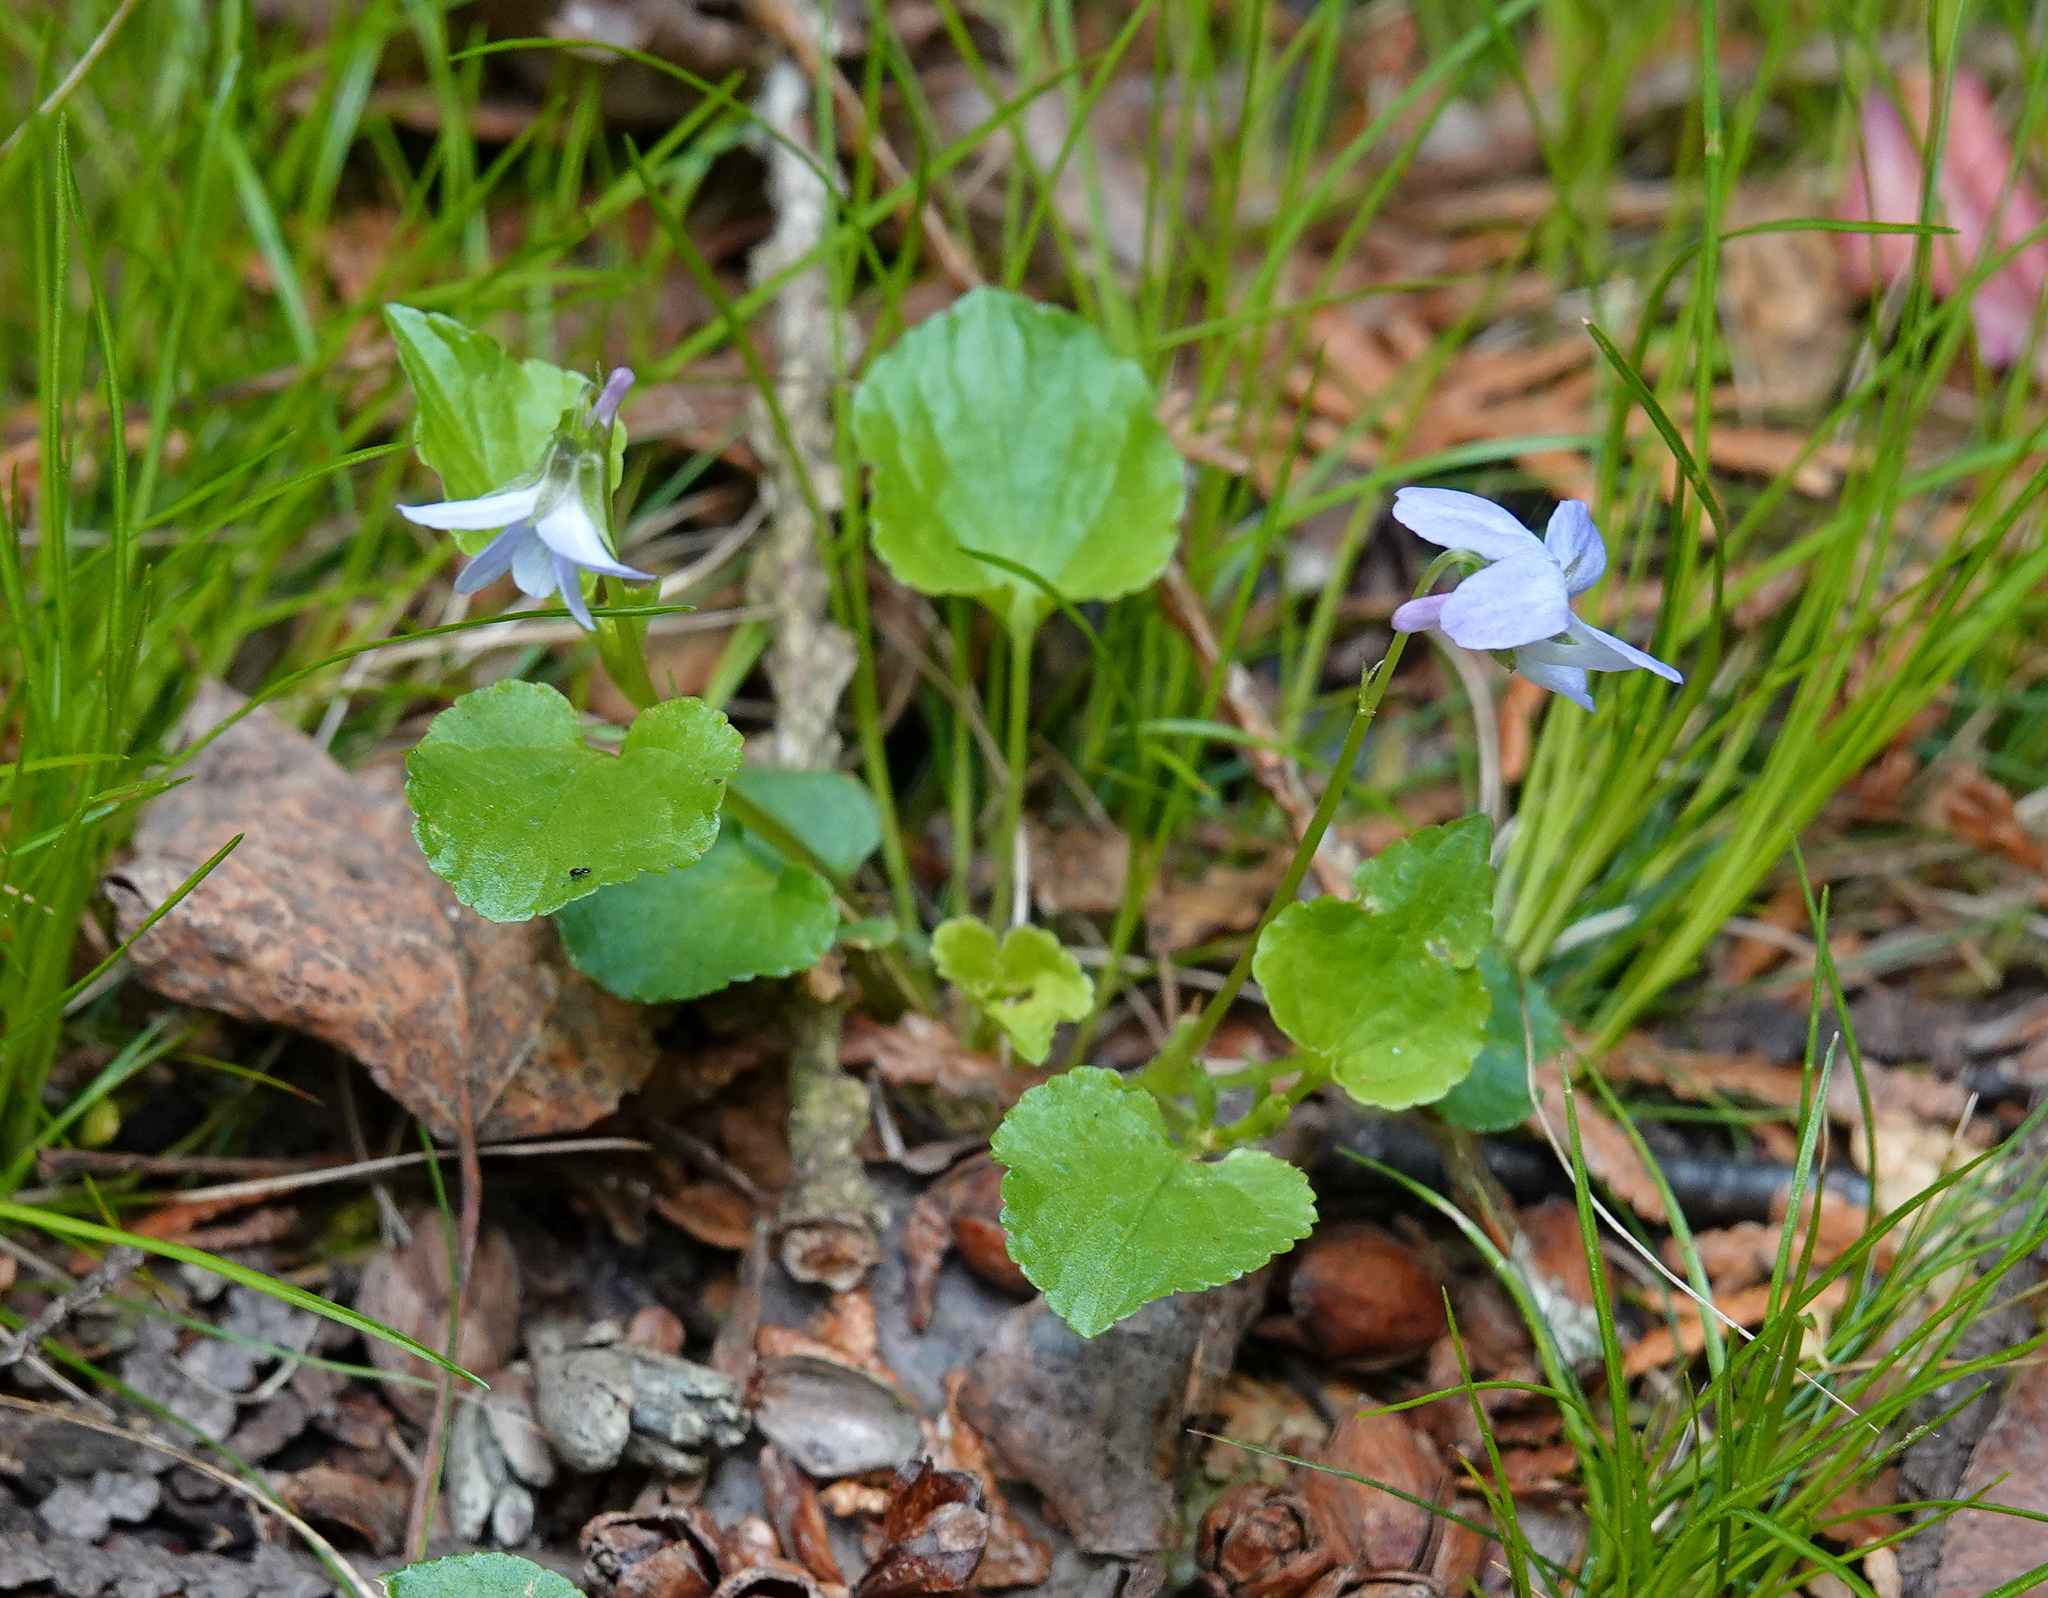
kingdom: Plantae
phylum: Tracheophyta
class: Magnoliopsida
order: Malpighiales
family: Violaceae
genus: Viola
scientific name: Viola labradorica
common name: Labrador violet
